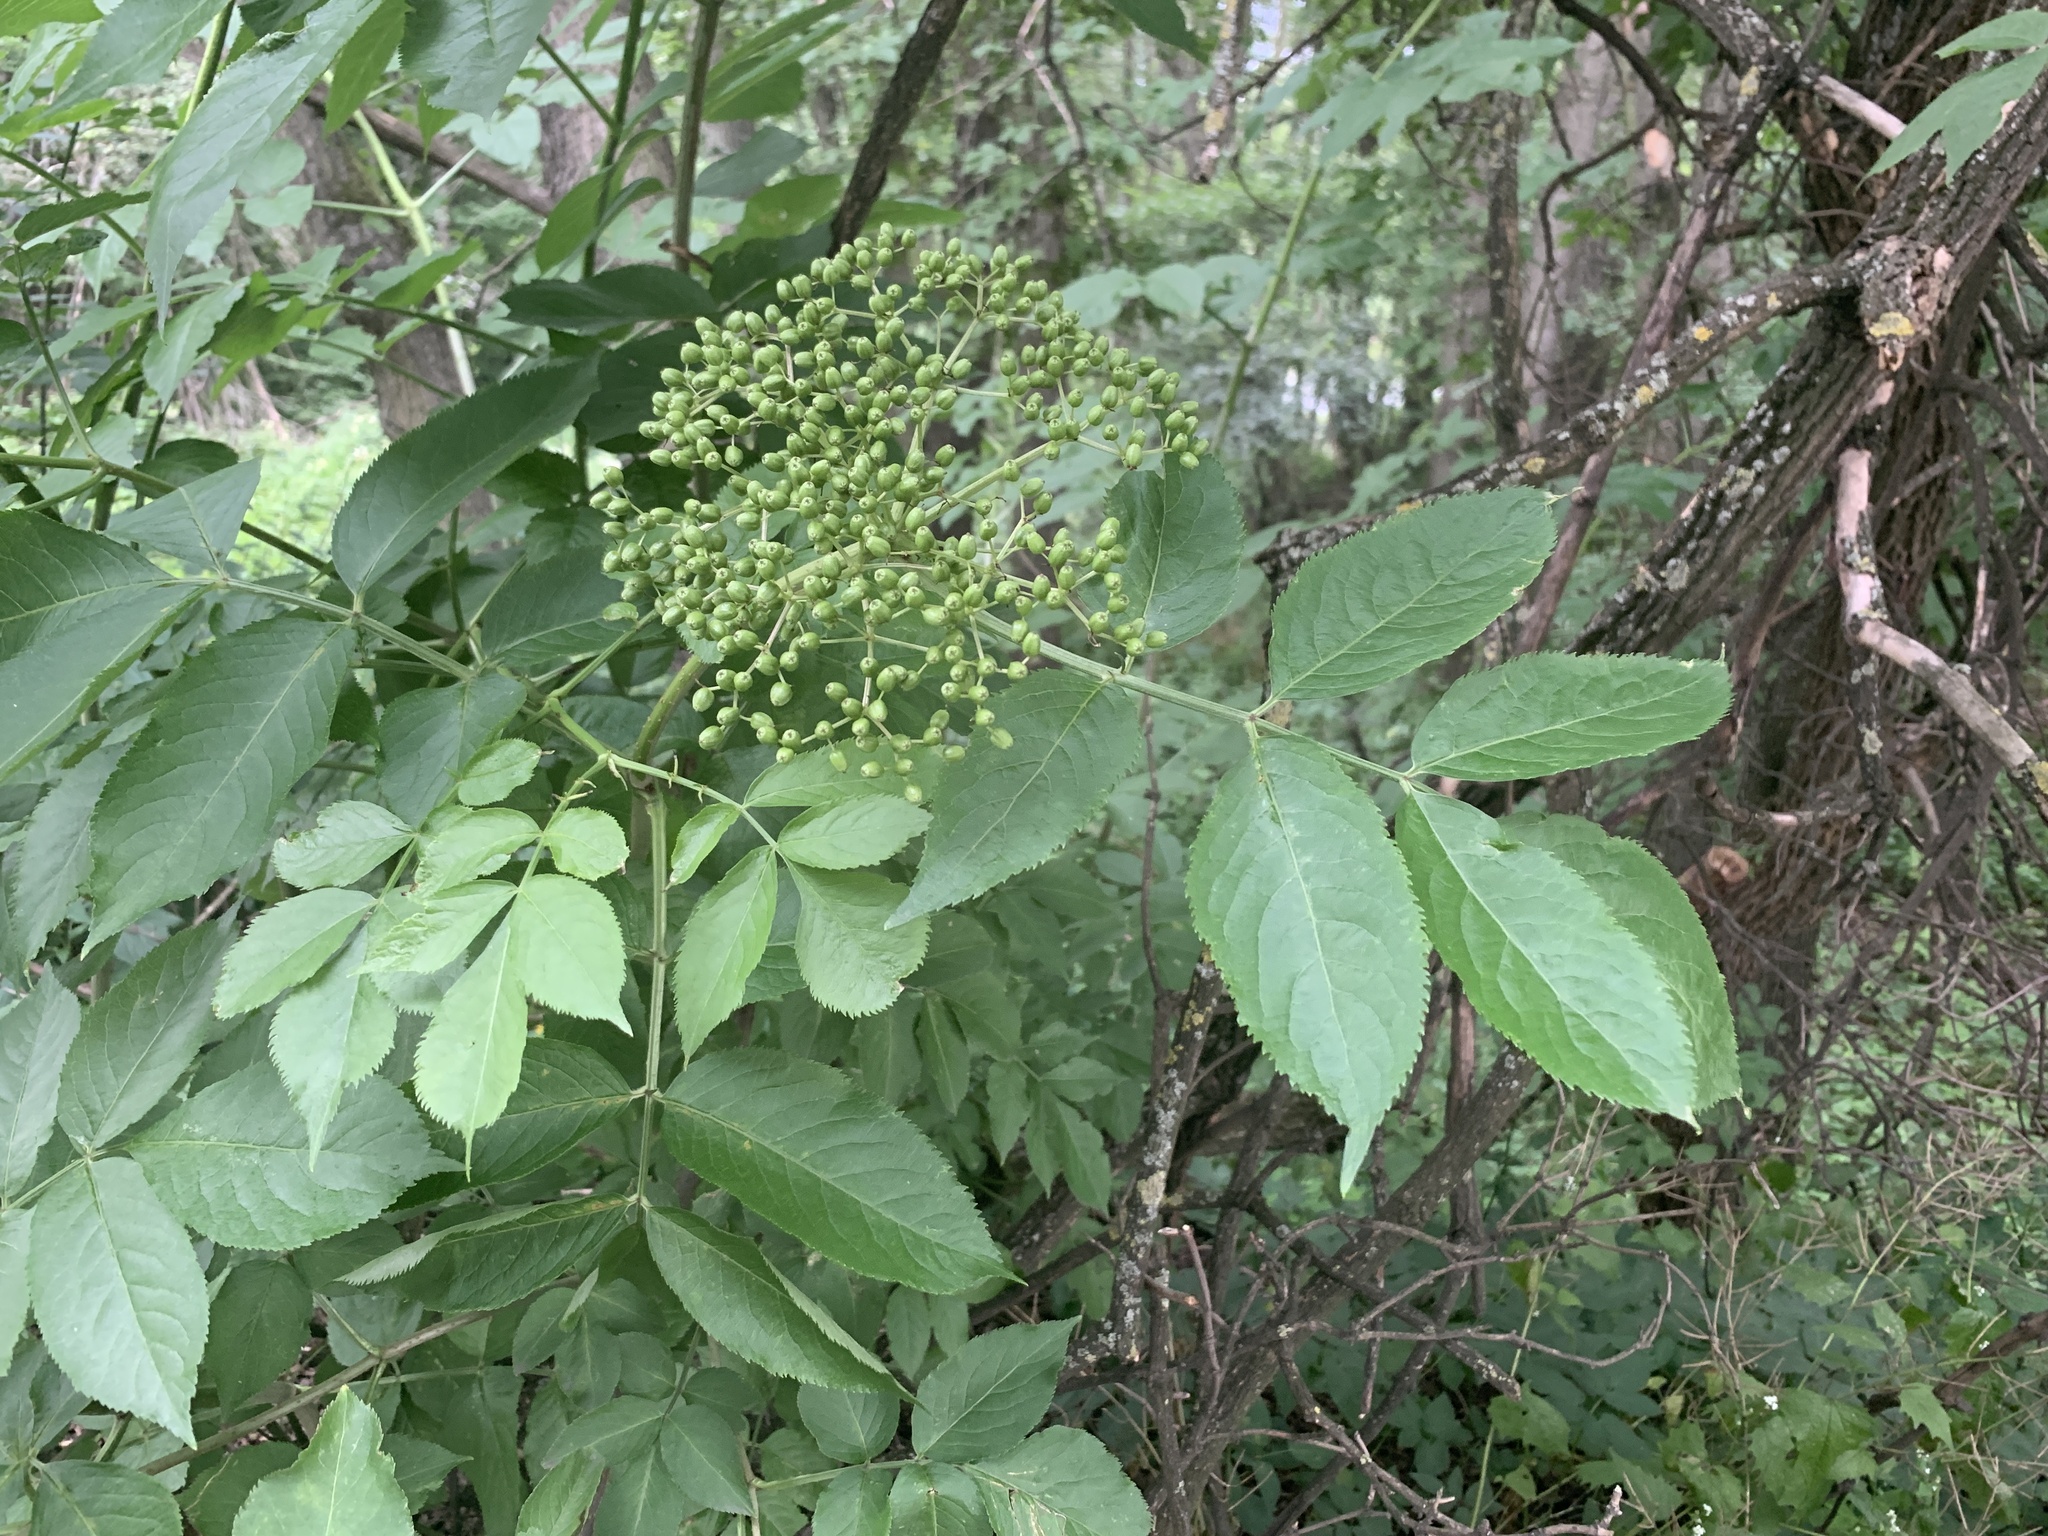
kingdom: Plantae
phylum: Tracheophyta
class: Magnoliopsida
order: Dipsacales
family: Viburnaceae
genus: Sambucus
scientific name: Sambucus nigra
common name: Elder
